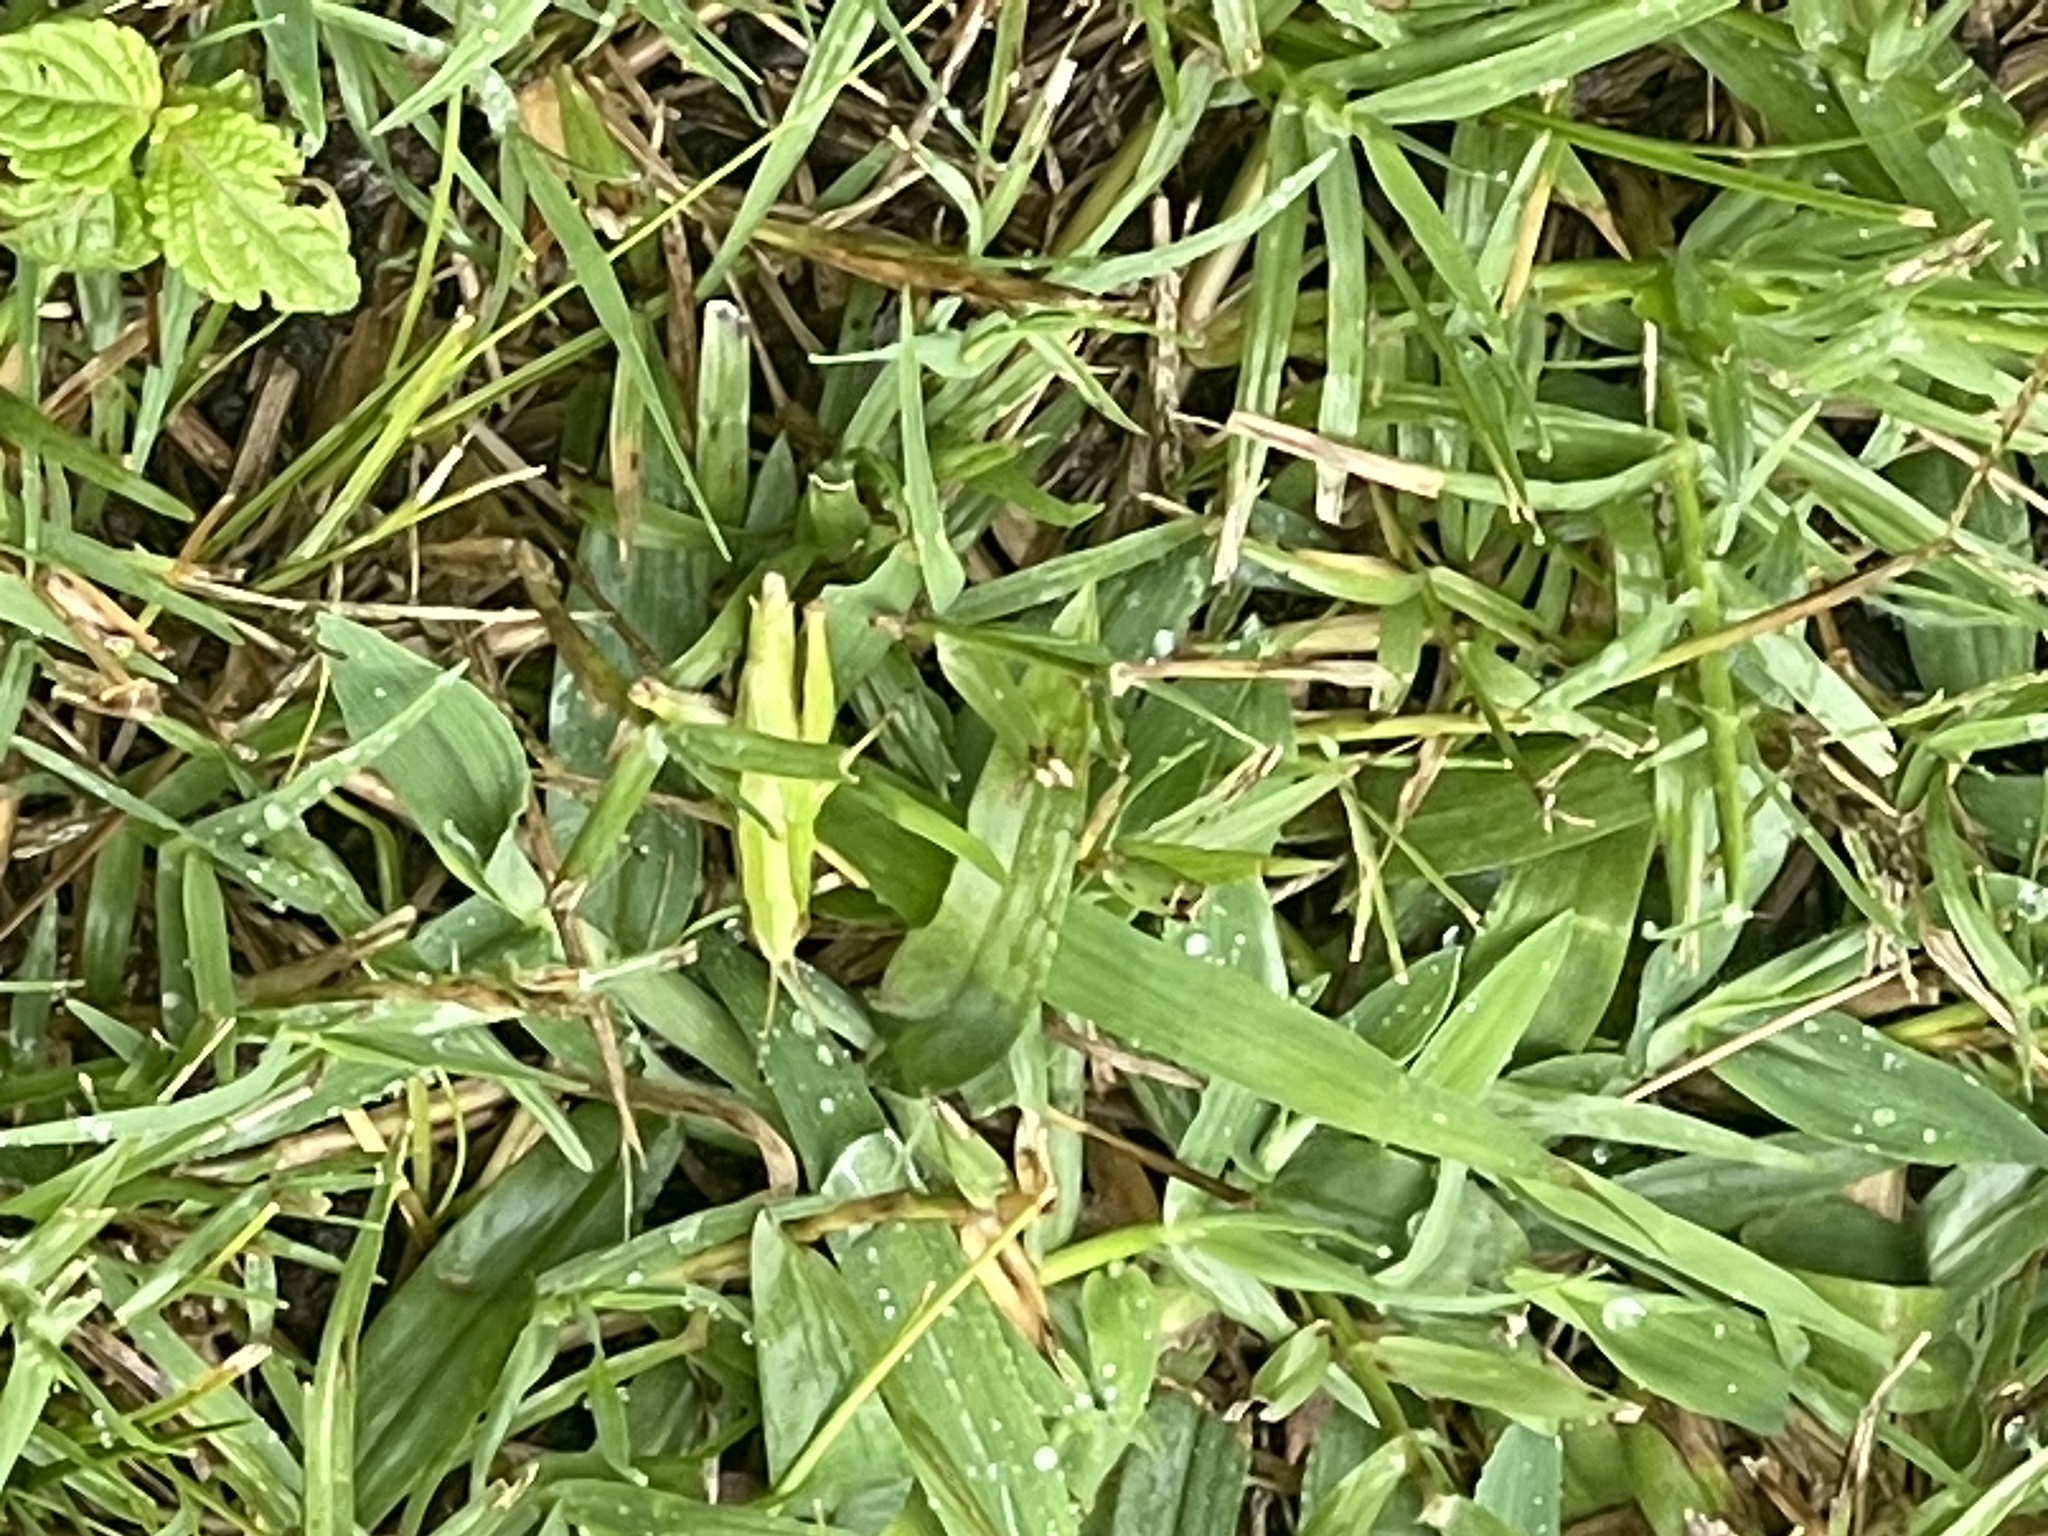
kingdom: Animalia
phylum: Arthropoda
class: Insecta
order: Orthoptera
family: Acrididae
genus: Dichromorpha
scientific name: Dichromorpha viridis
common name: Short-winged green grasshopper
